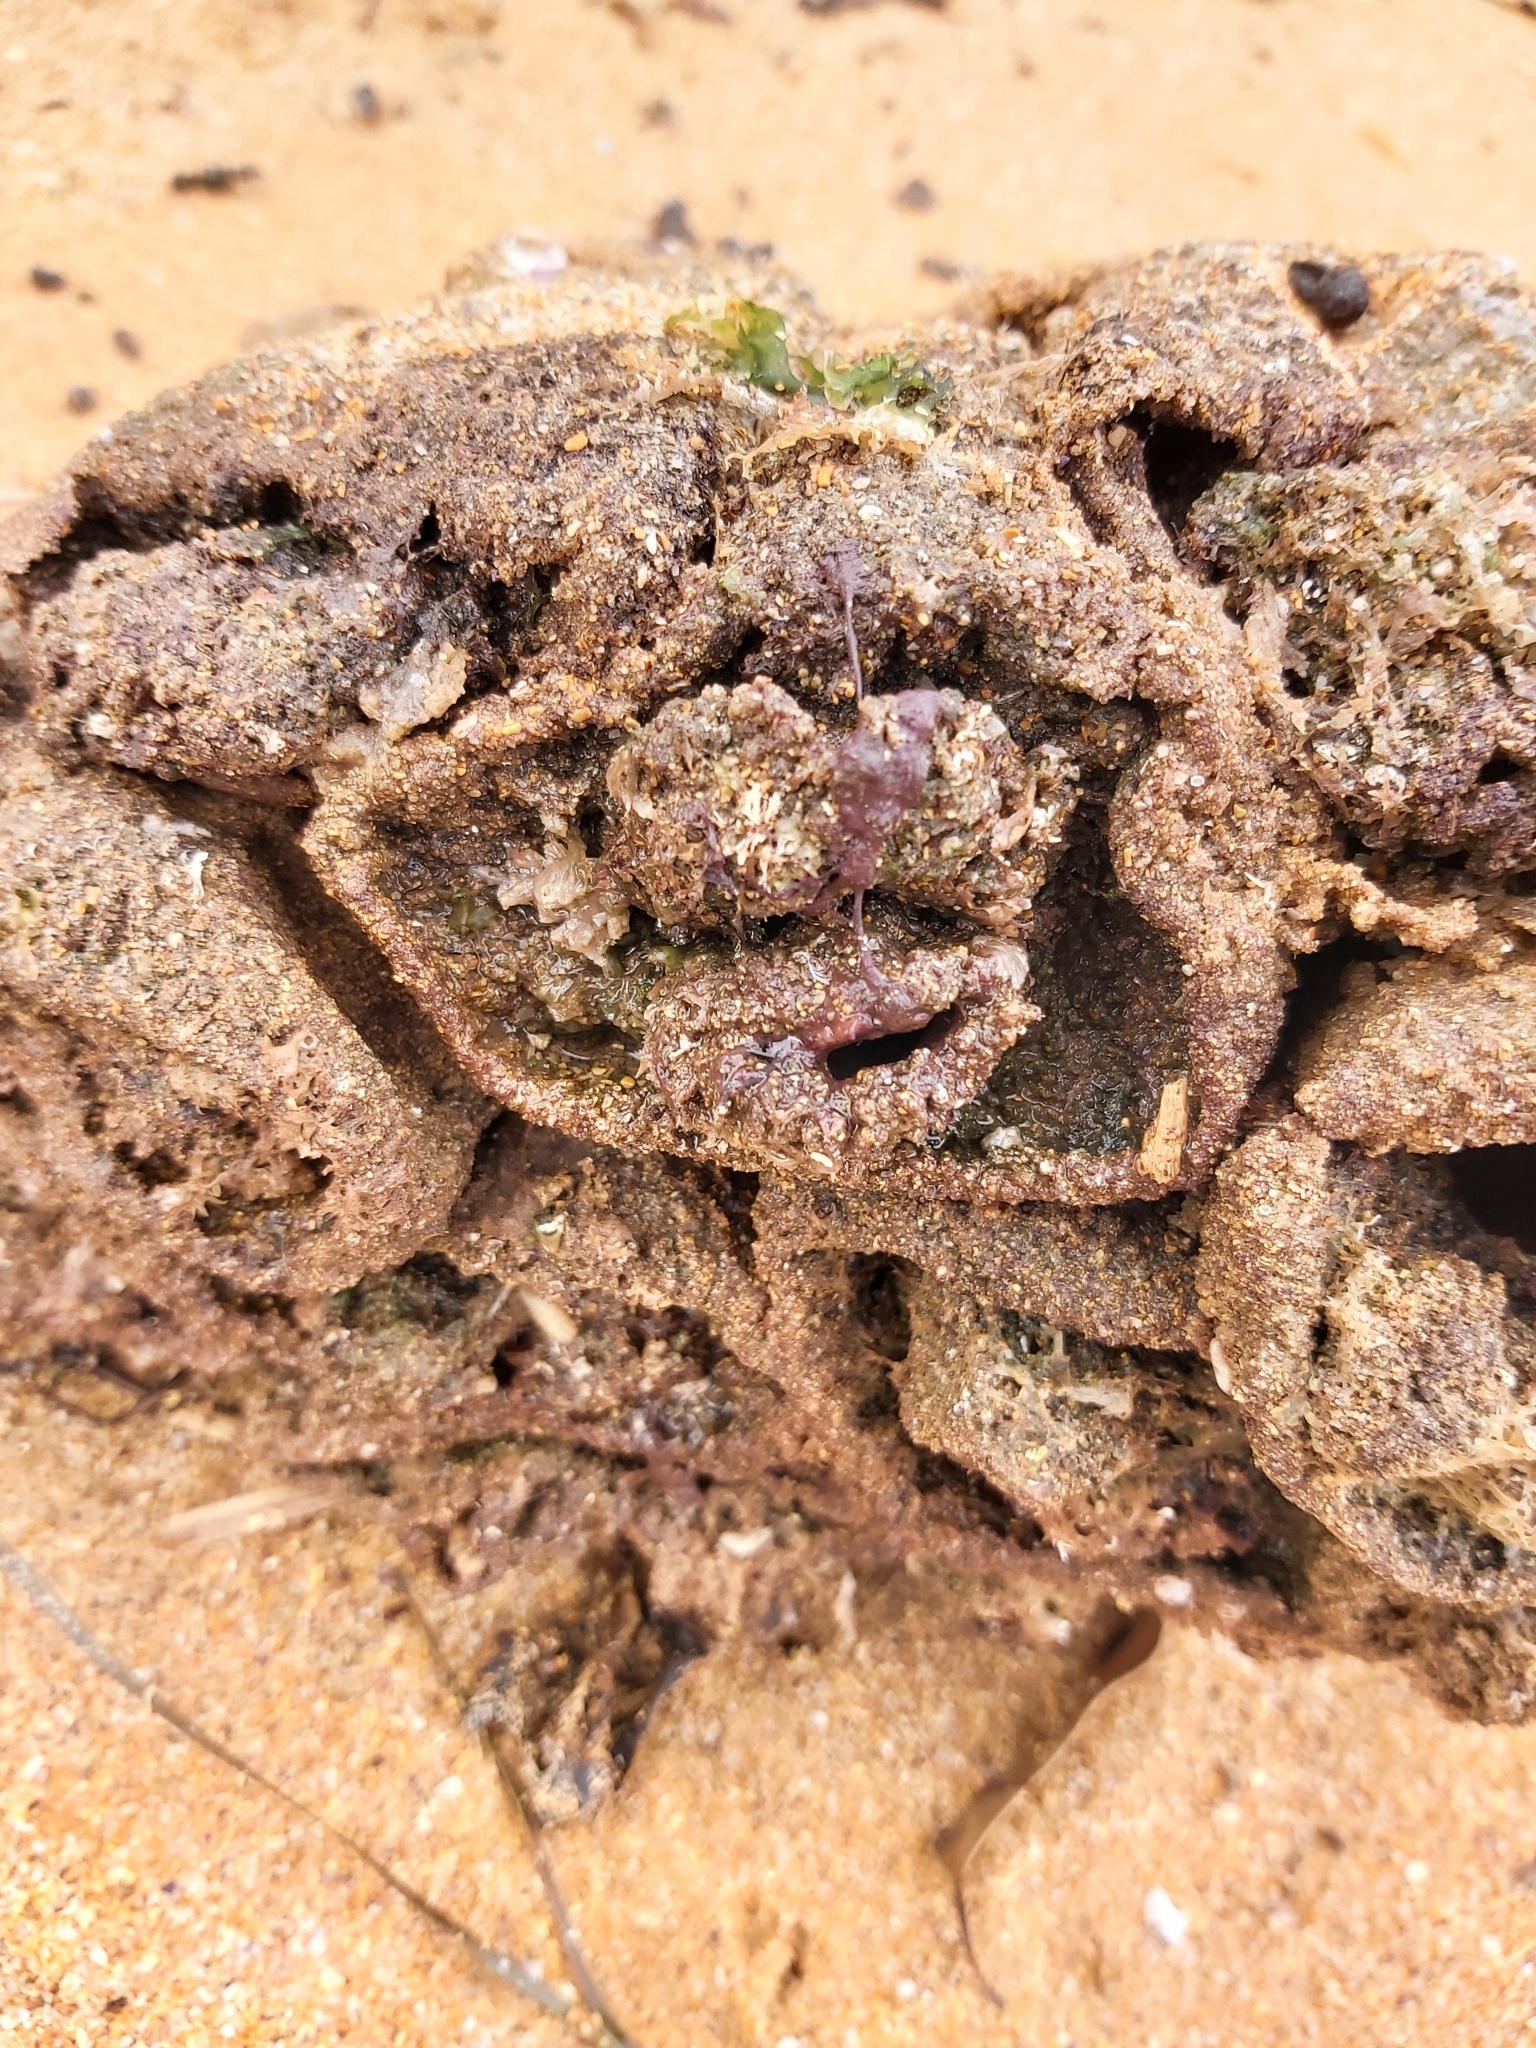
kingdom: Animalia
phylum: Chordata
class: Ascidiacea
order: Stolidobranchia
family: Pyuridae
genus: Pyura
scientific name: Pyura praeputialis
